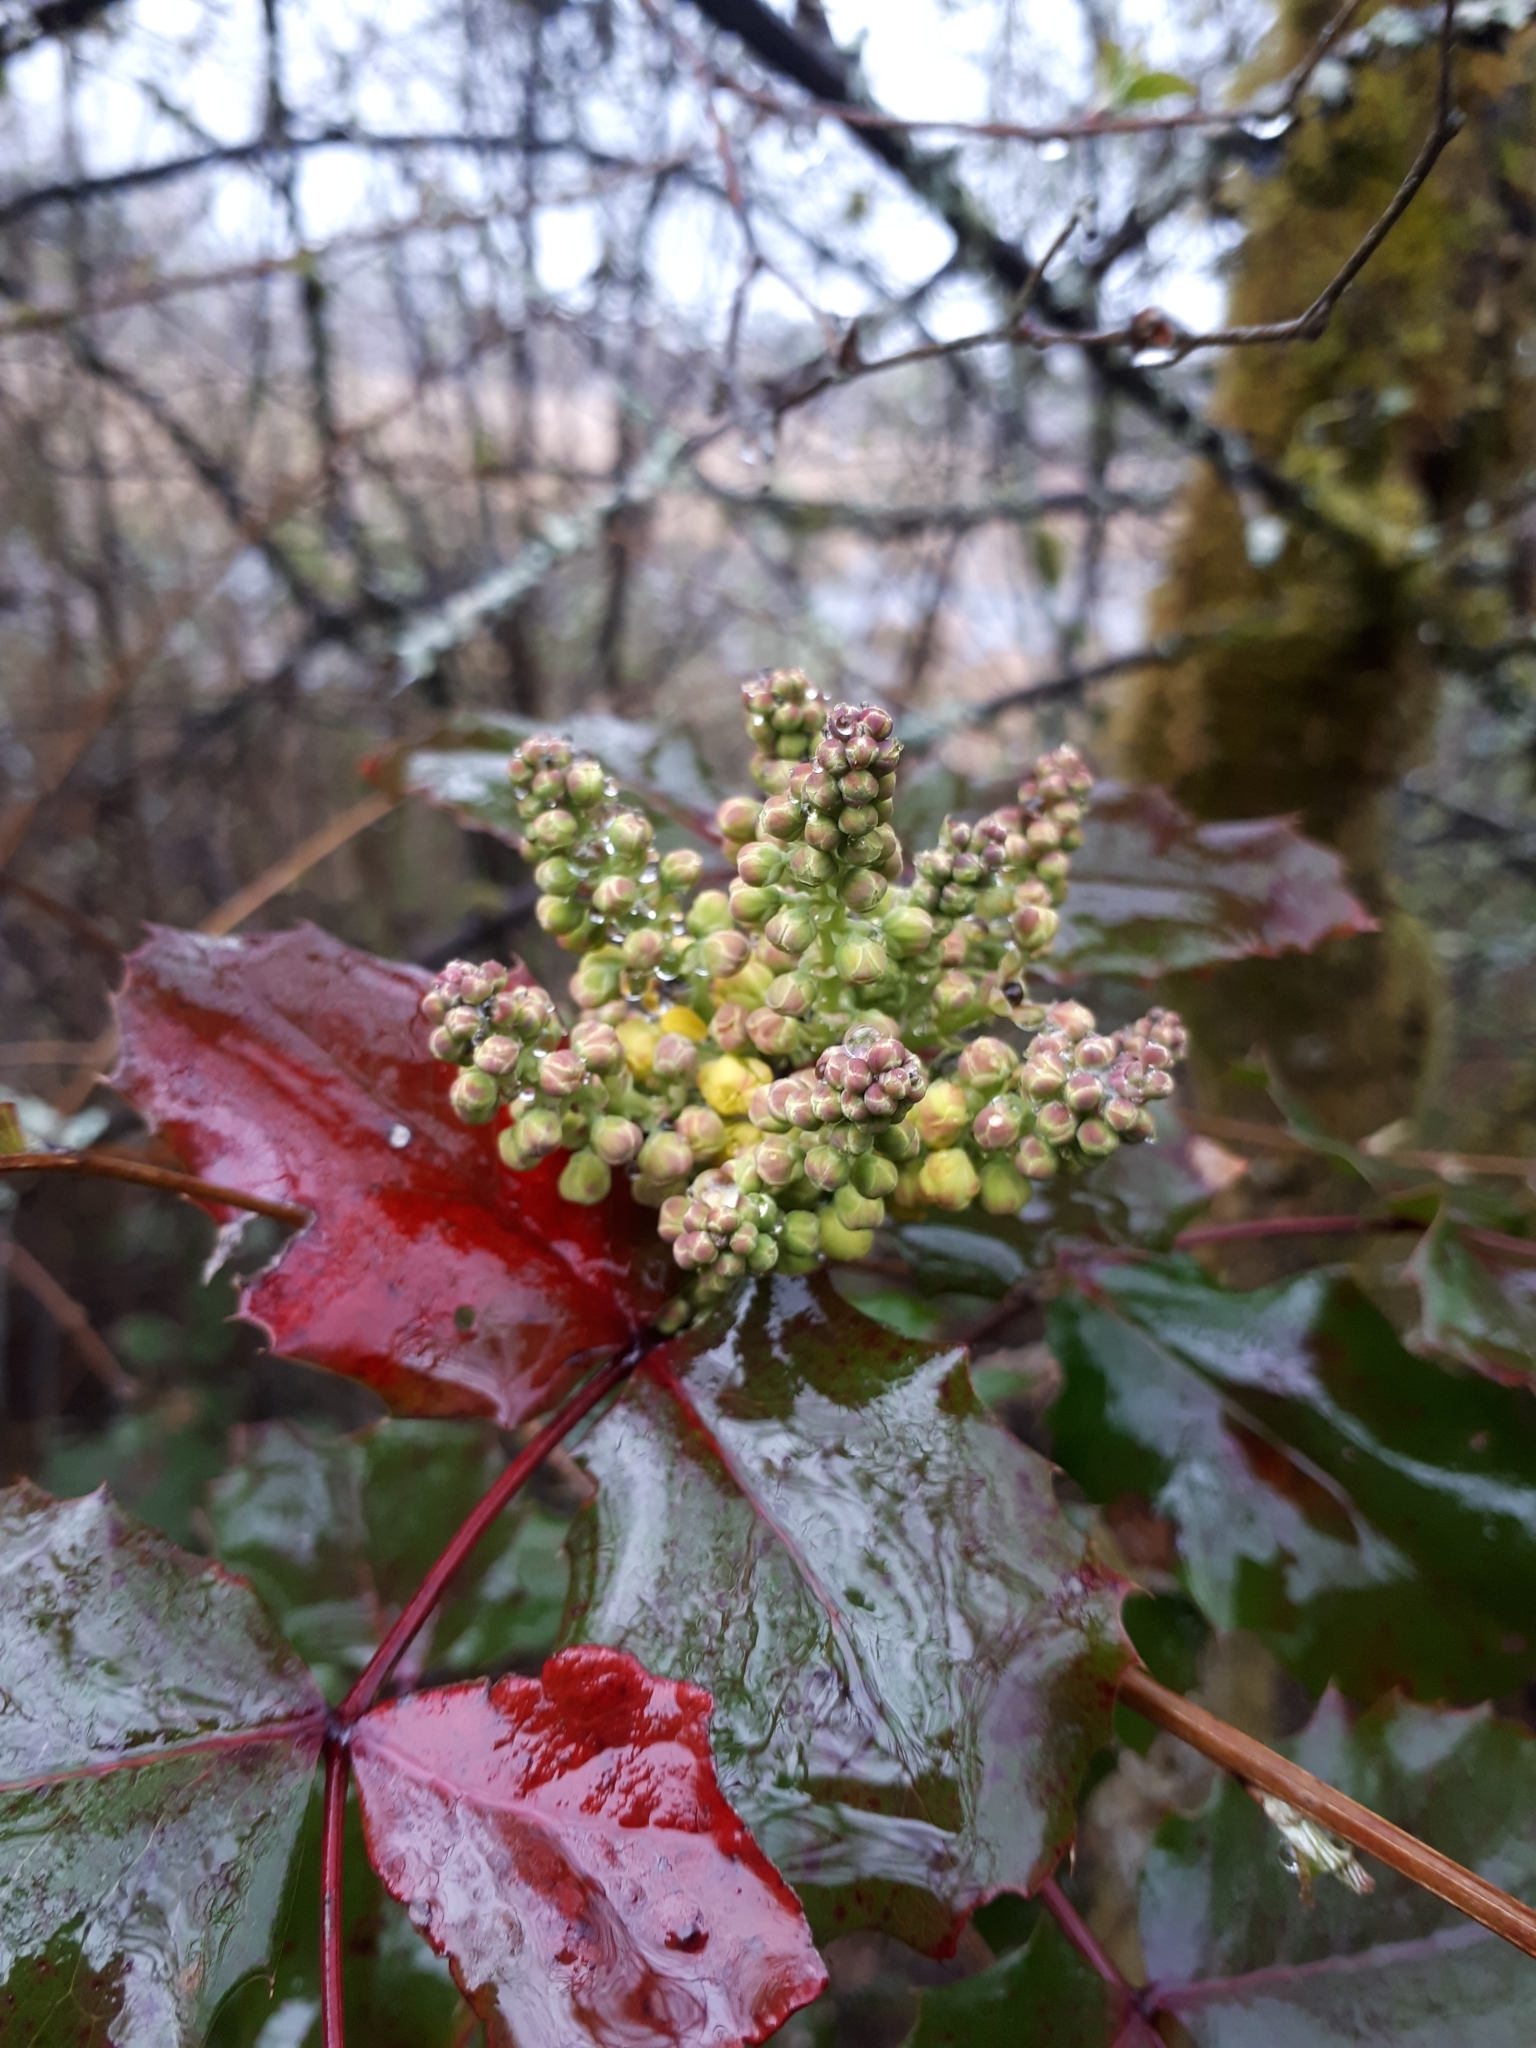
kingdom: Plantae
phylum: Tracheophyta
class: Magnoliopsida
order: Ranunculales
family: Berberidaceae
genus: Mahonia
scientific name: Mahonia aquifolium
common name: Oregon-grape
